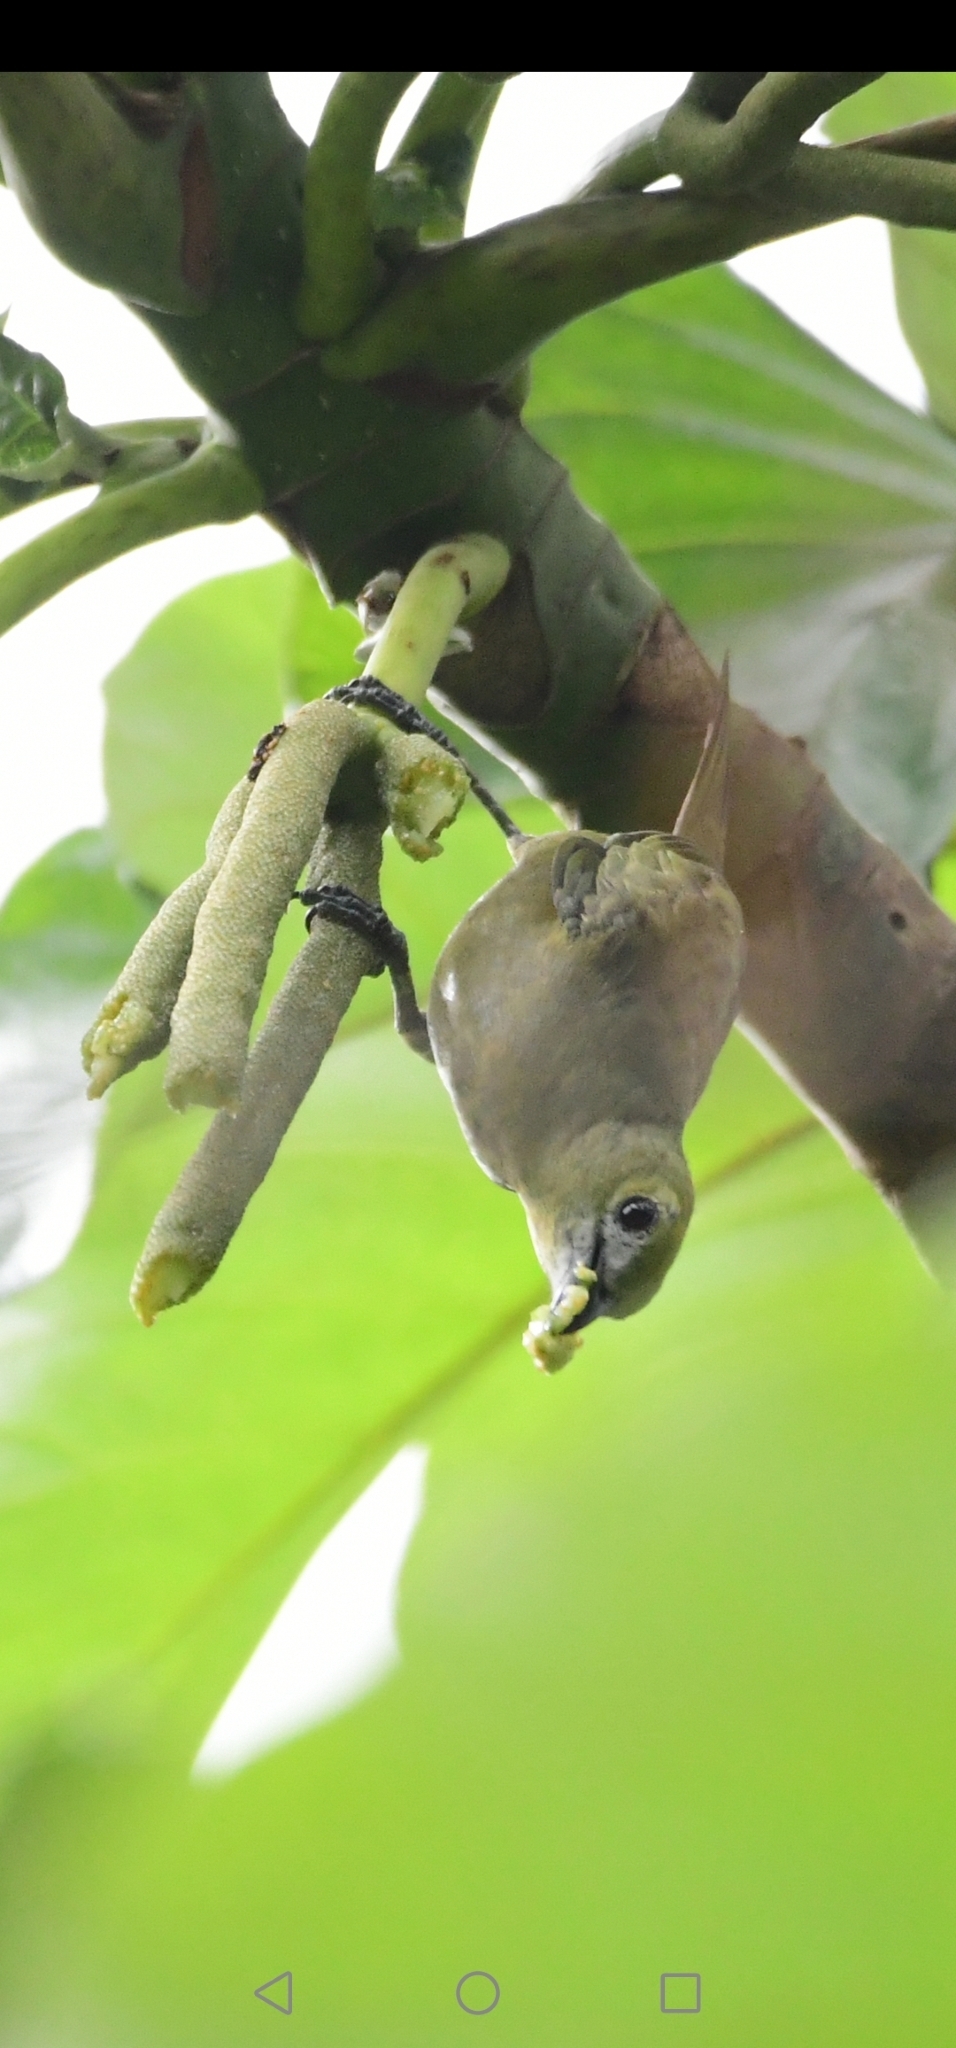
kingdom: Animalia
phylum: Chordata
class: Aves
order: Passeriformes
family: Thraupidae
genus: Thraupis
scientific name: Thraupis palmarum
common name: Palm tanager
